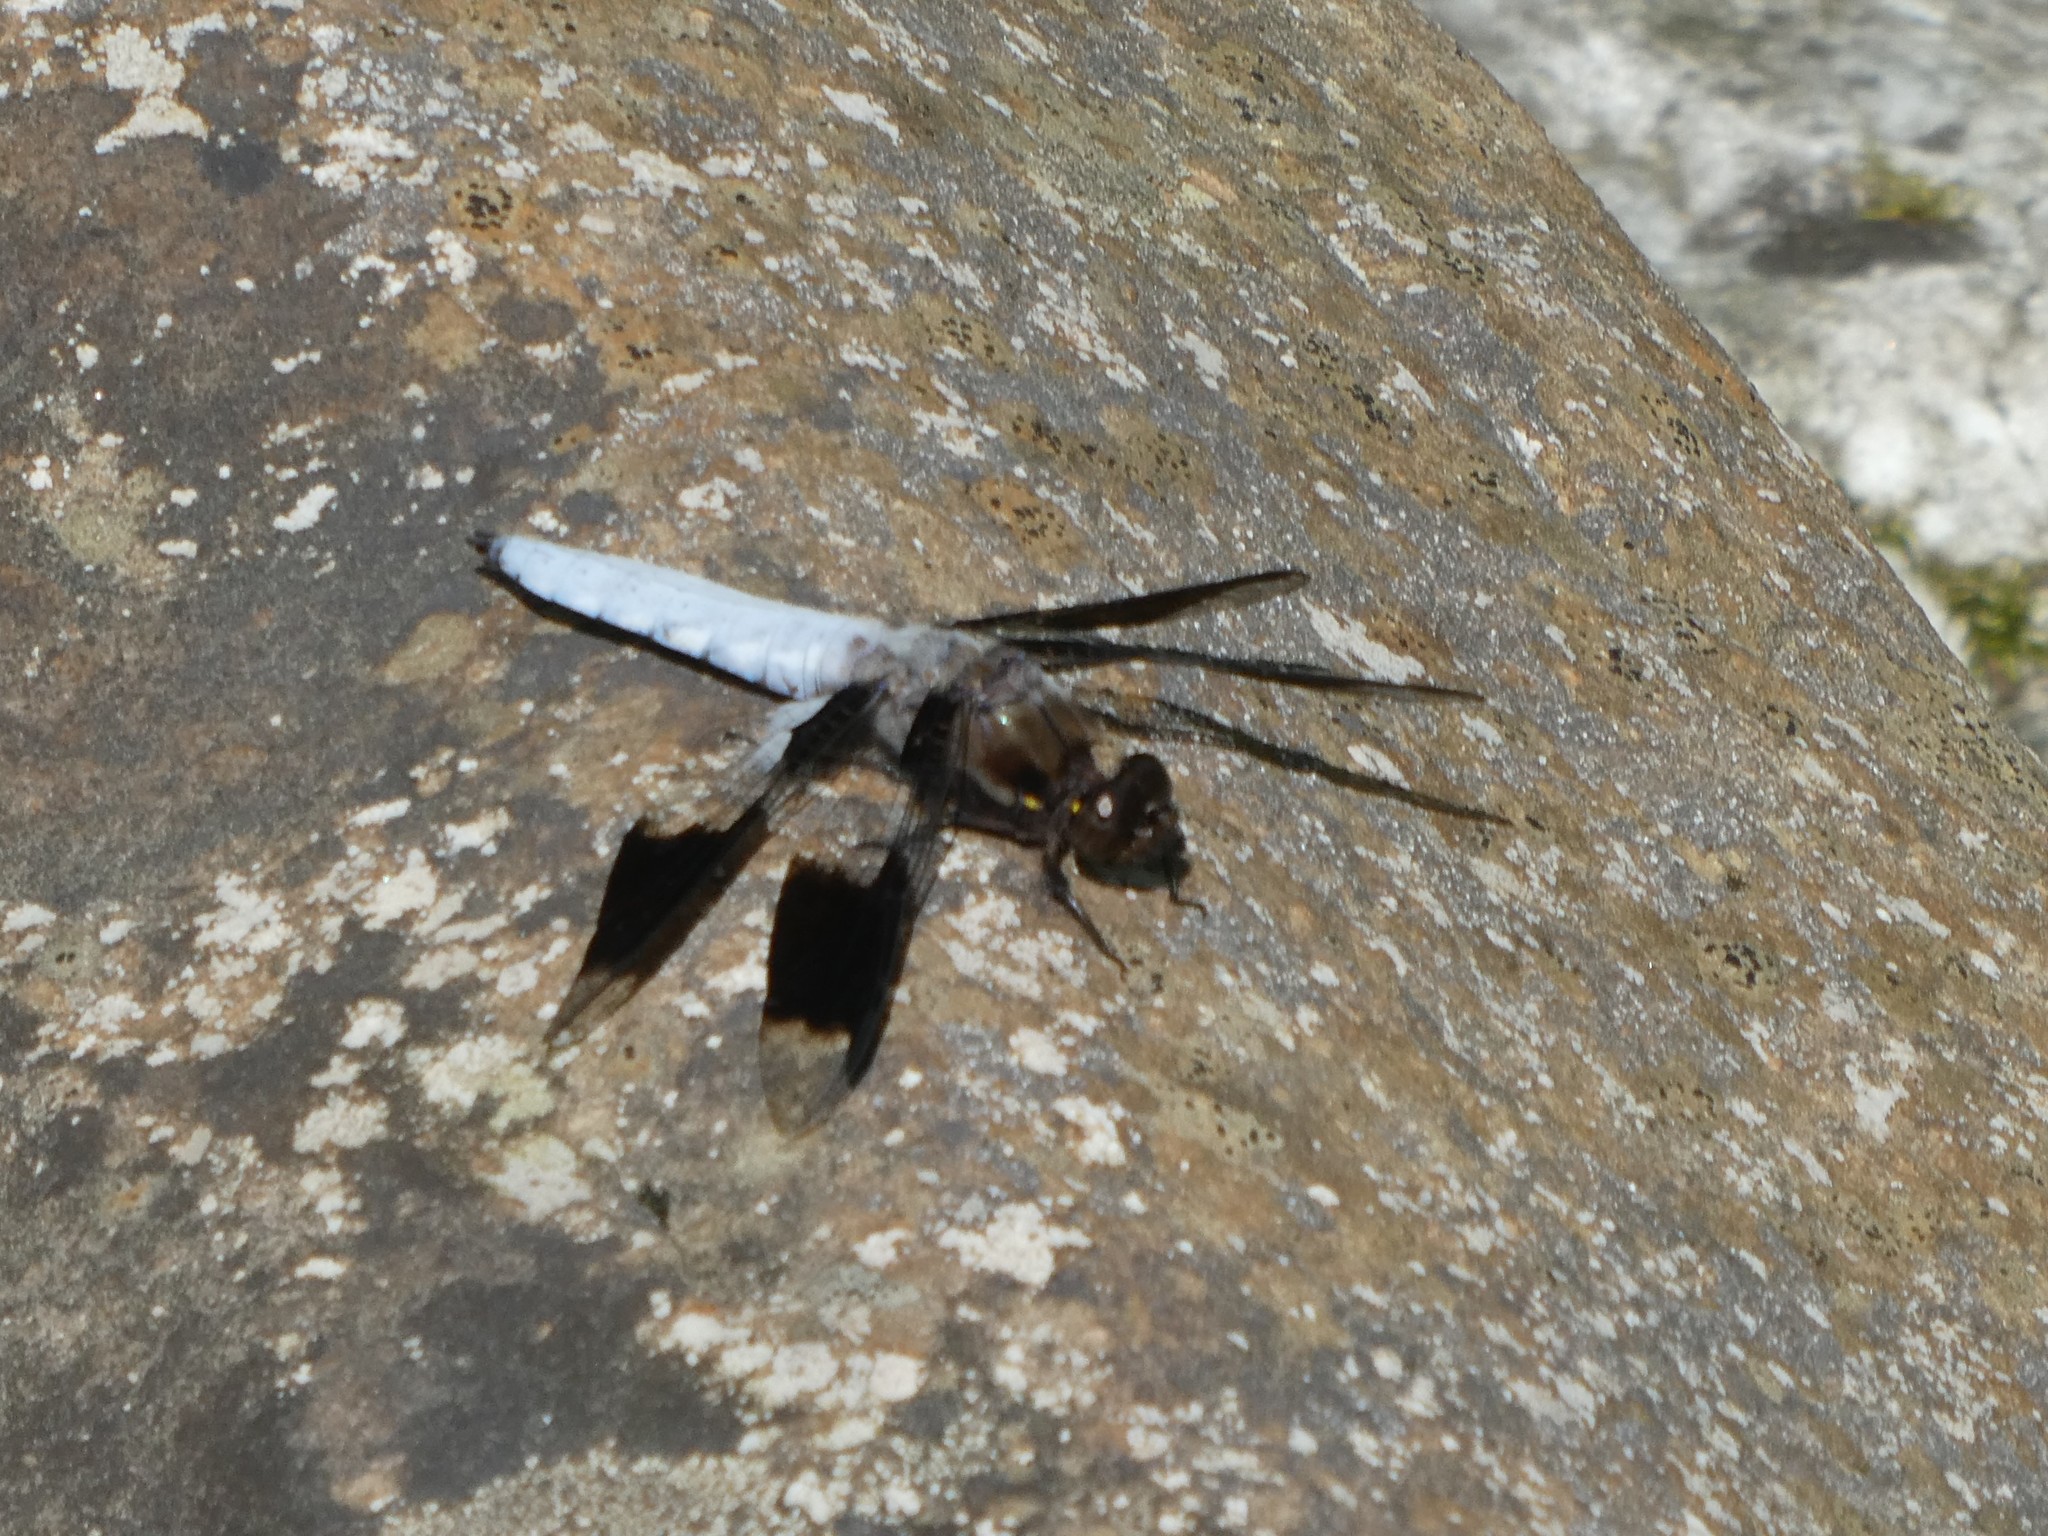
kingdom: Animalia
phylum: Arthropoda
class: Insecta
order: Odonata
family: Libellulidae
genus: Plathemis
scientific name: Plathemis lydia
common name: Common whitetail
